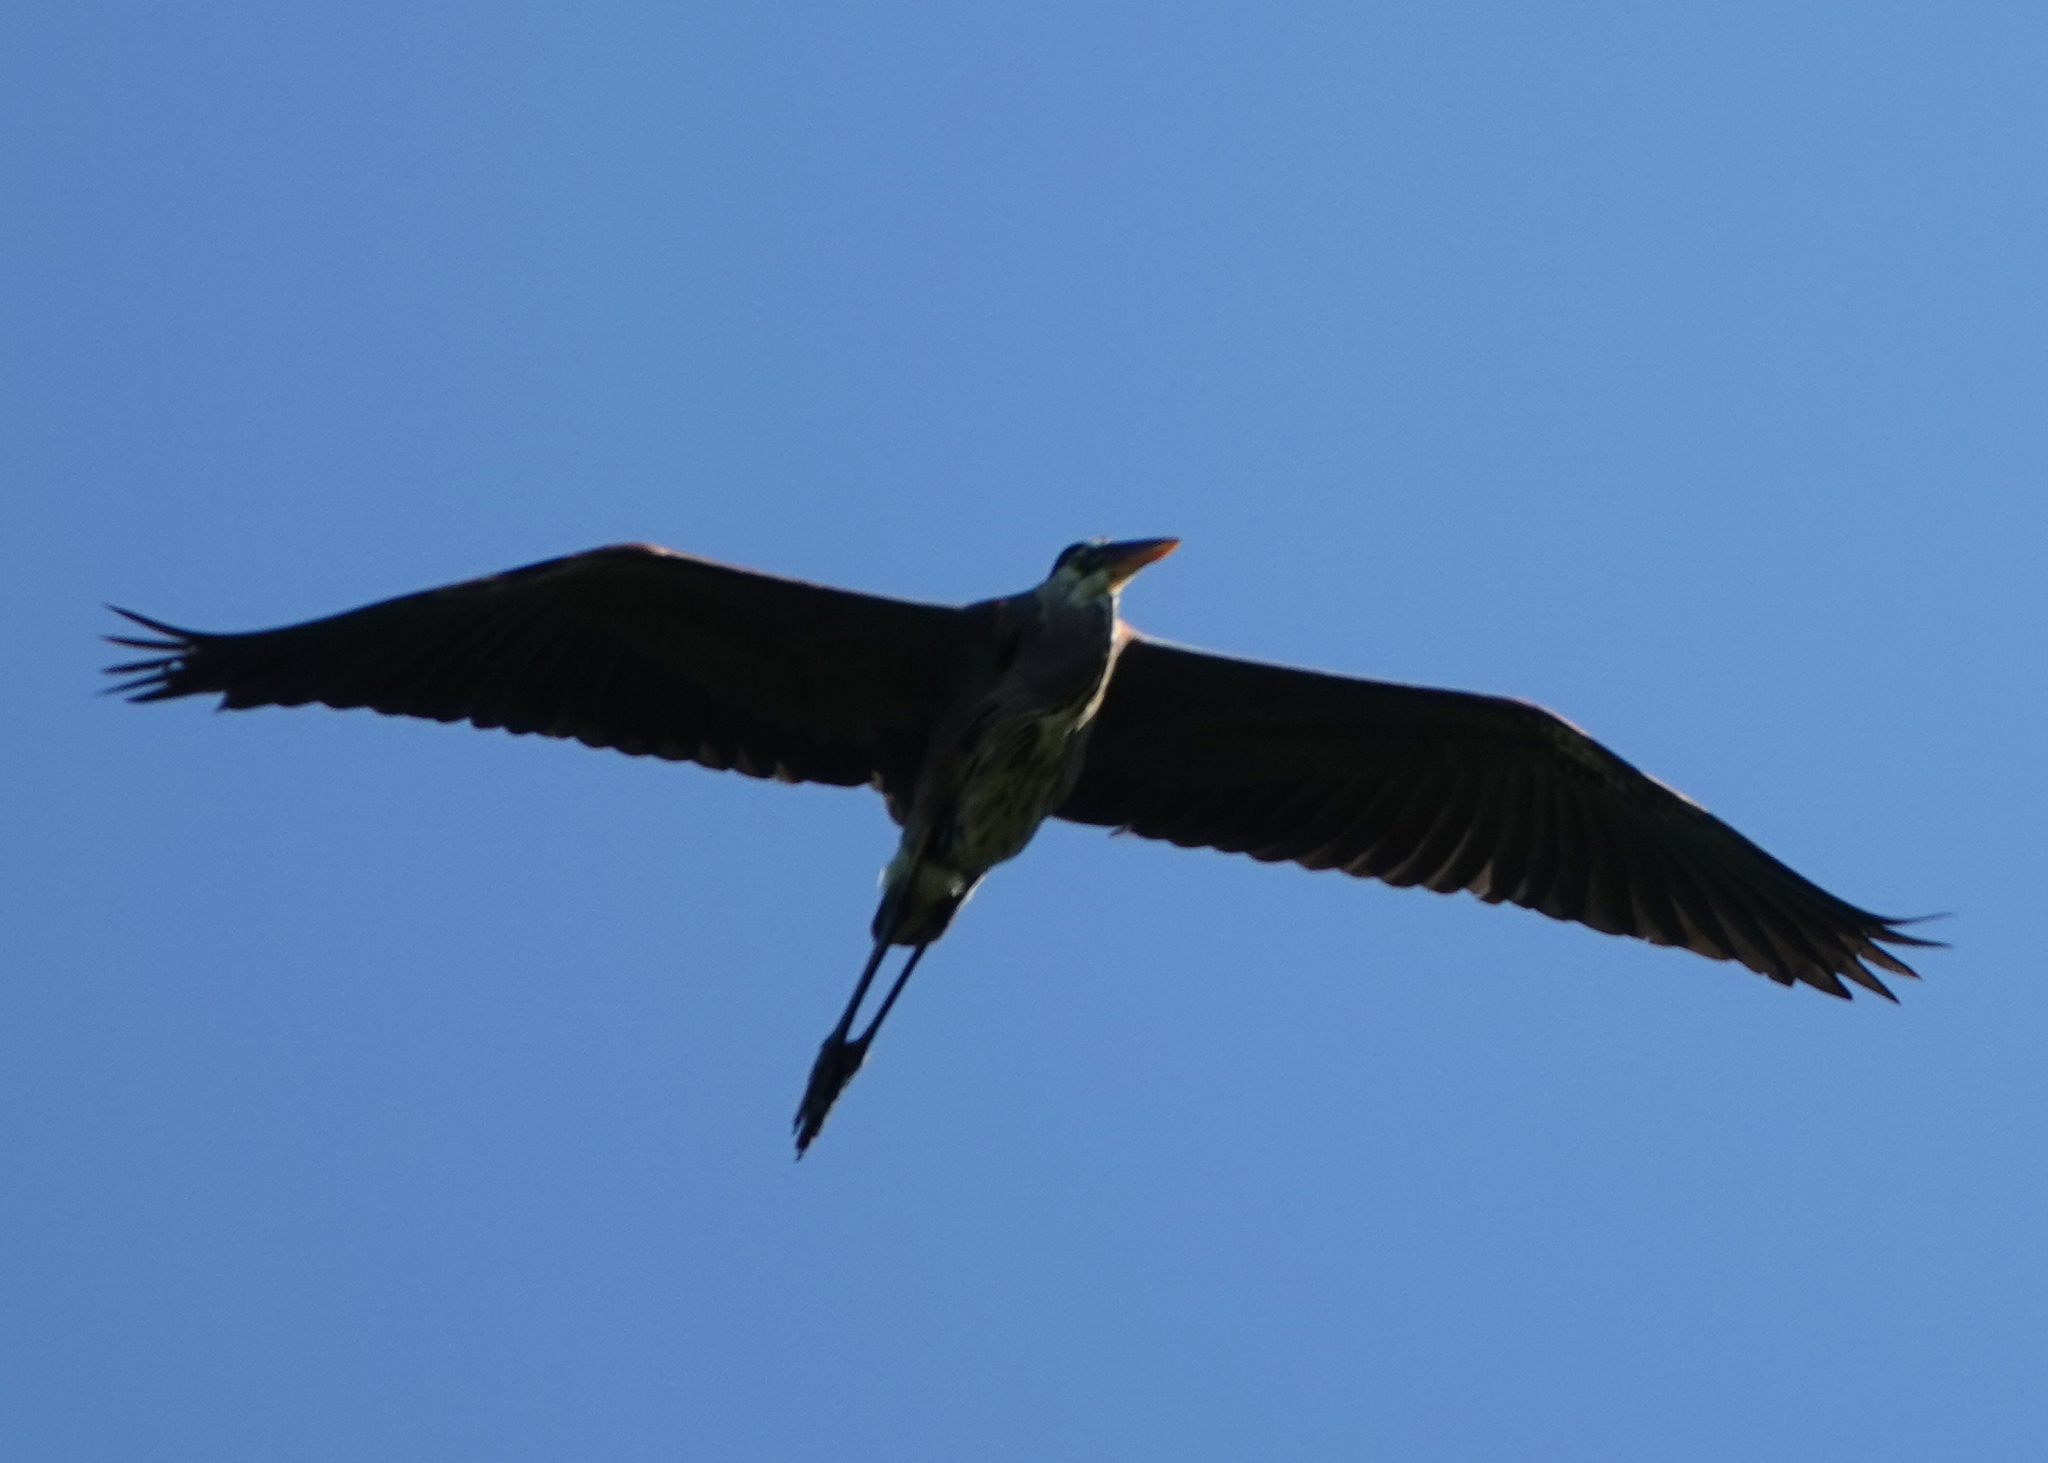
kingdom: Animalia
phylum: Chordata
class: Aves
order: Pelecaniformes
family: Ardeidae
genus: Ardea
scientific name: Ardea herodias
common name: Great blue heron
